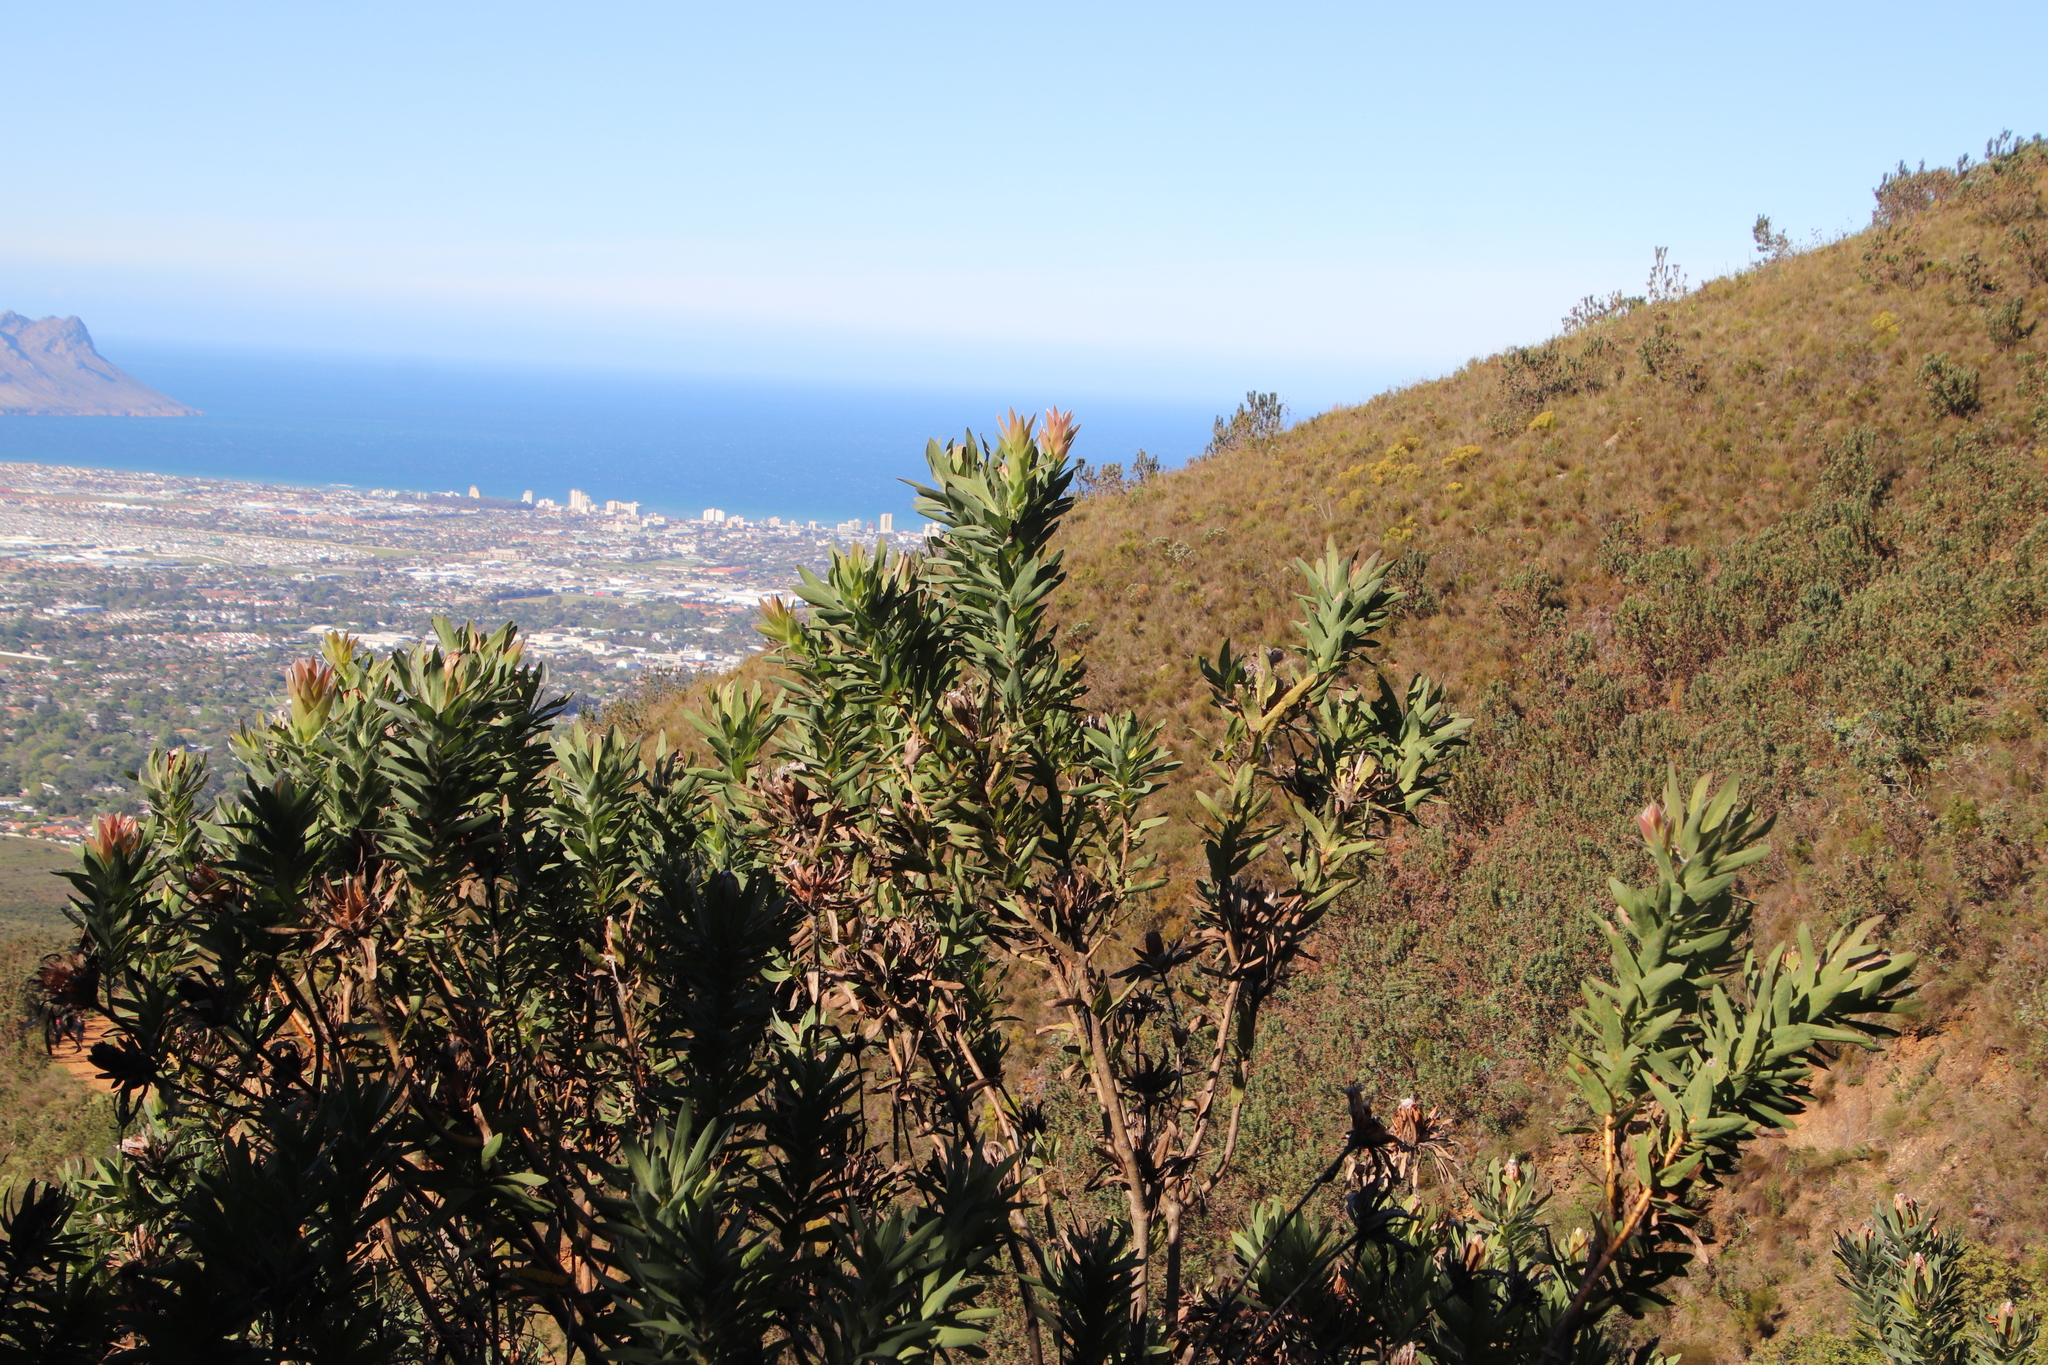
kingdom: Plantae
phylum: Tracheophyta
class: Magnoliopsida
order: Proteales
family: Proteaceae
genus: Protea
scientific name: Protea coronata
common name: Green sugarbush
